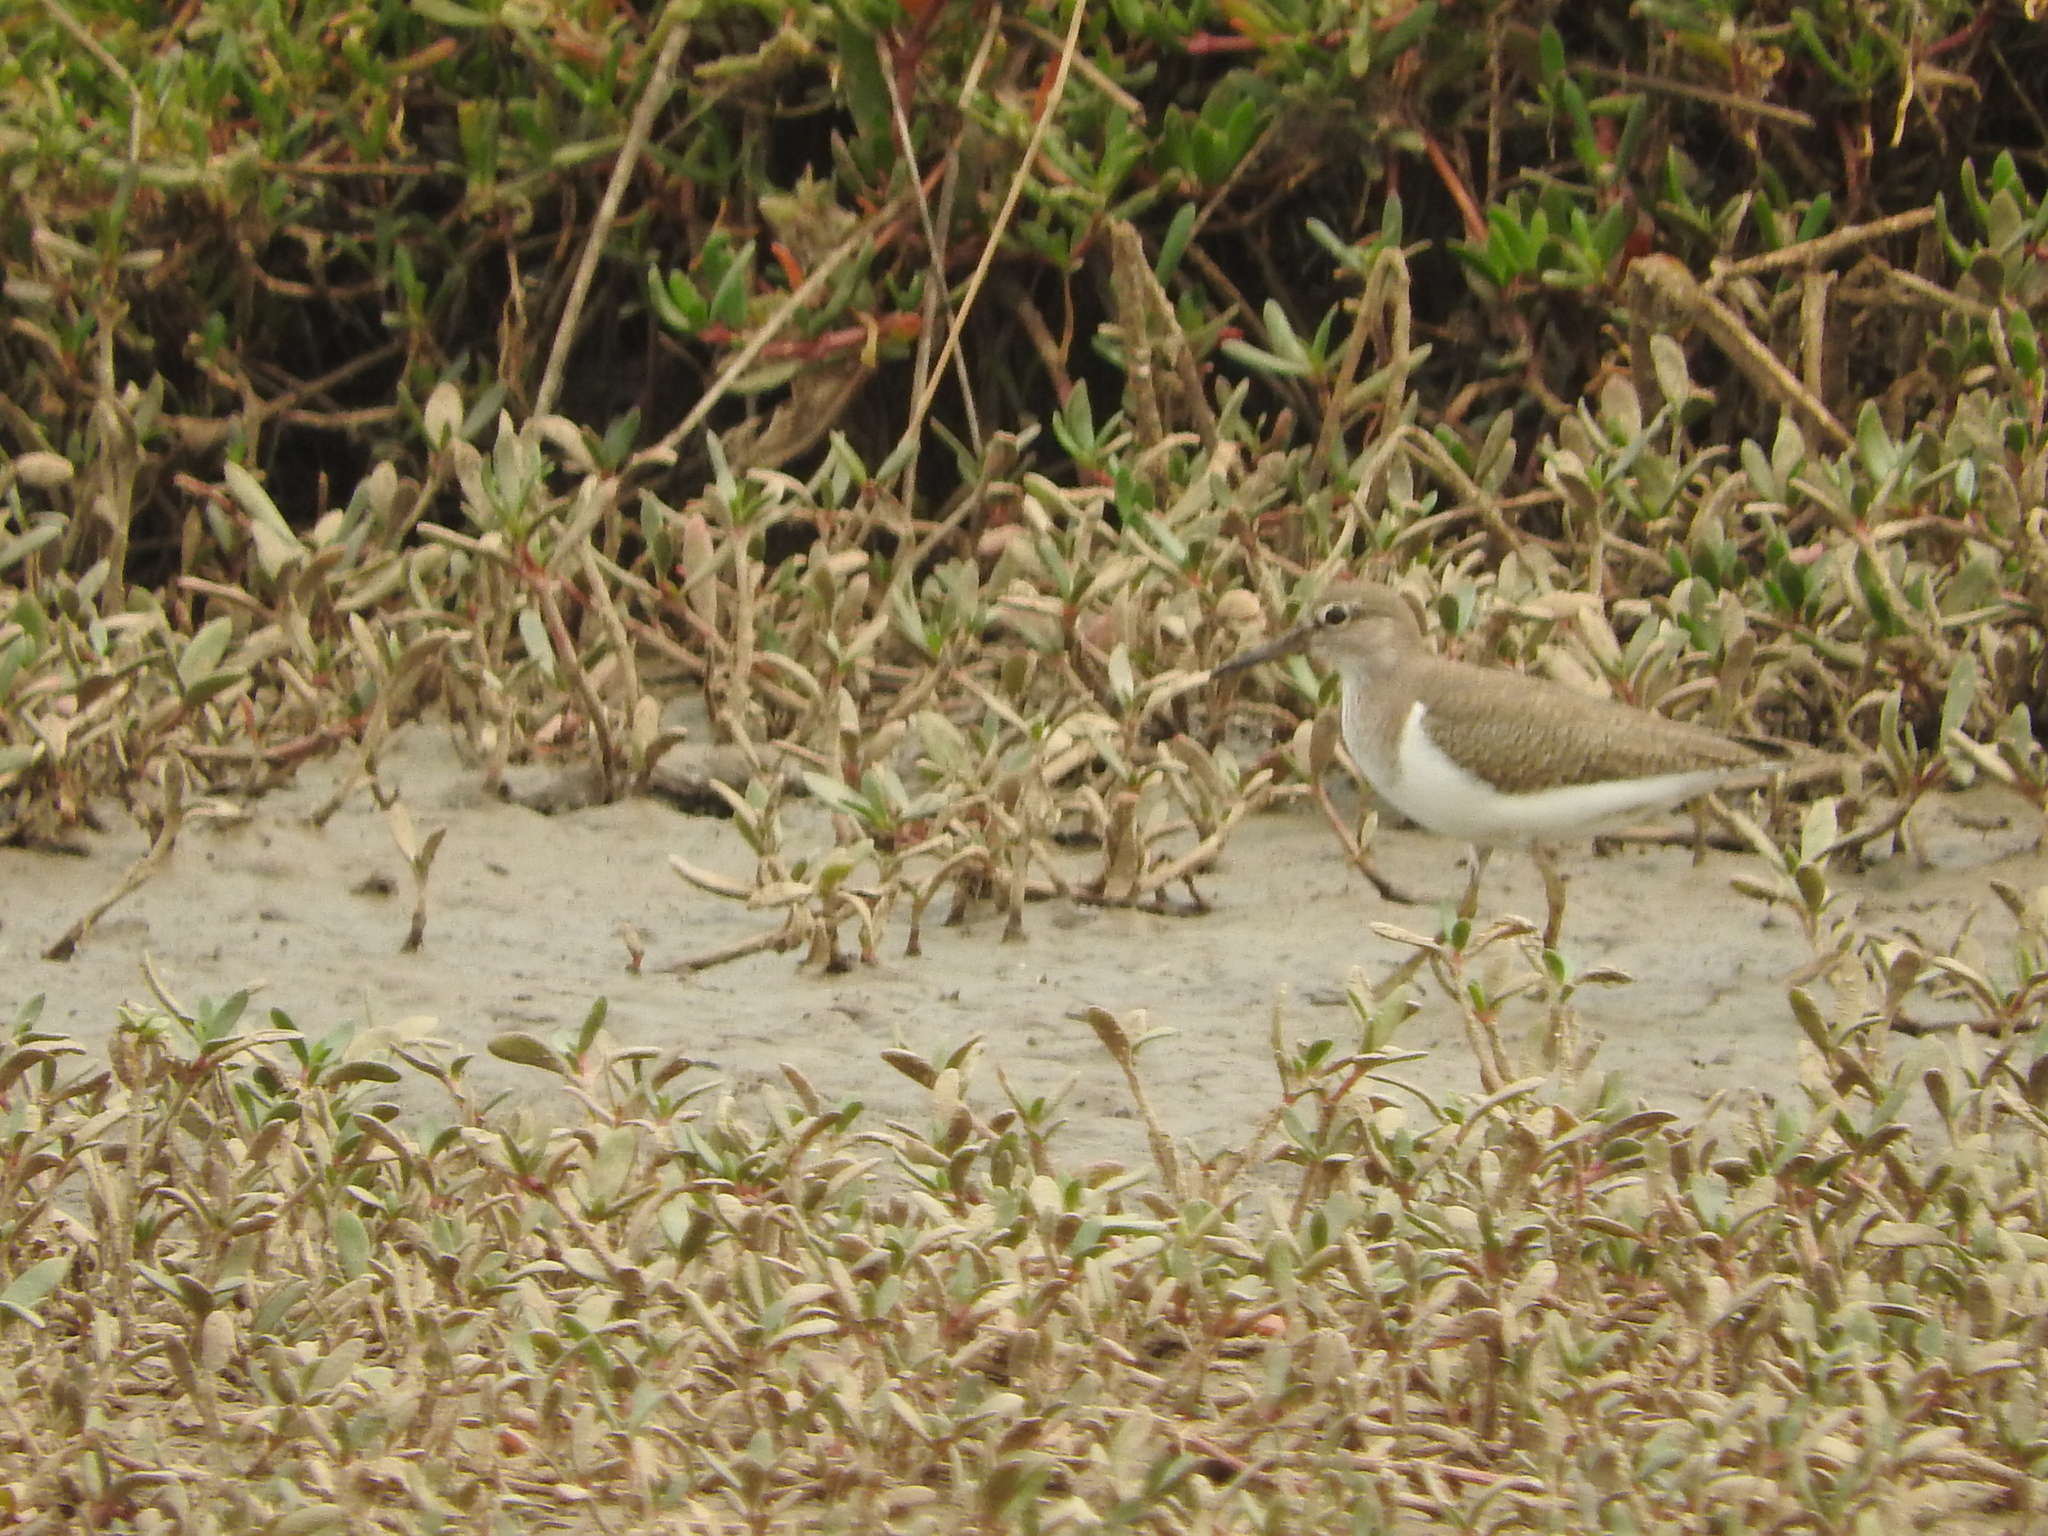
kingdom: Animalia
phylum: Chordata
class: Aves
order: Charadriiformes
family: Scolopacidae
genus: Actitis
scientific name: Actitis hypoleucos
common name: Common sandpiper
